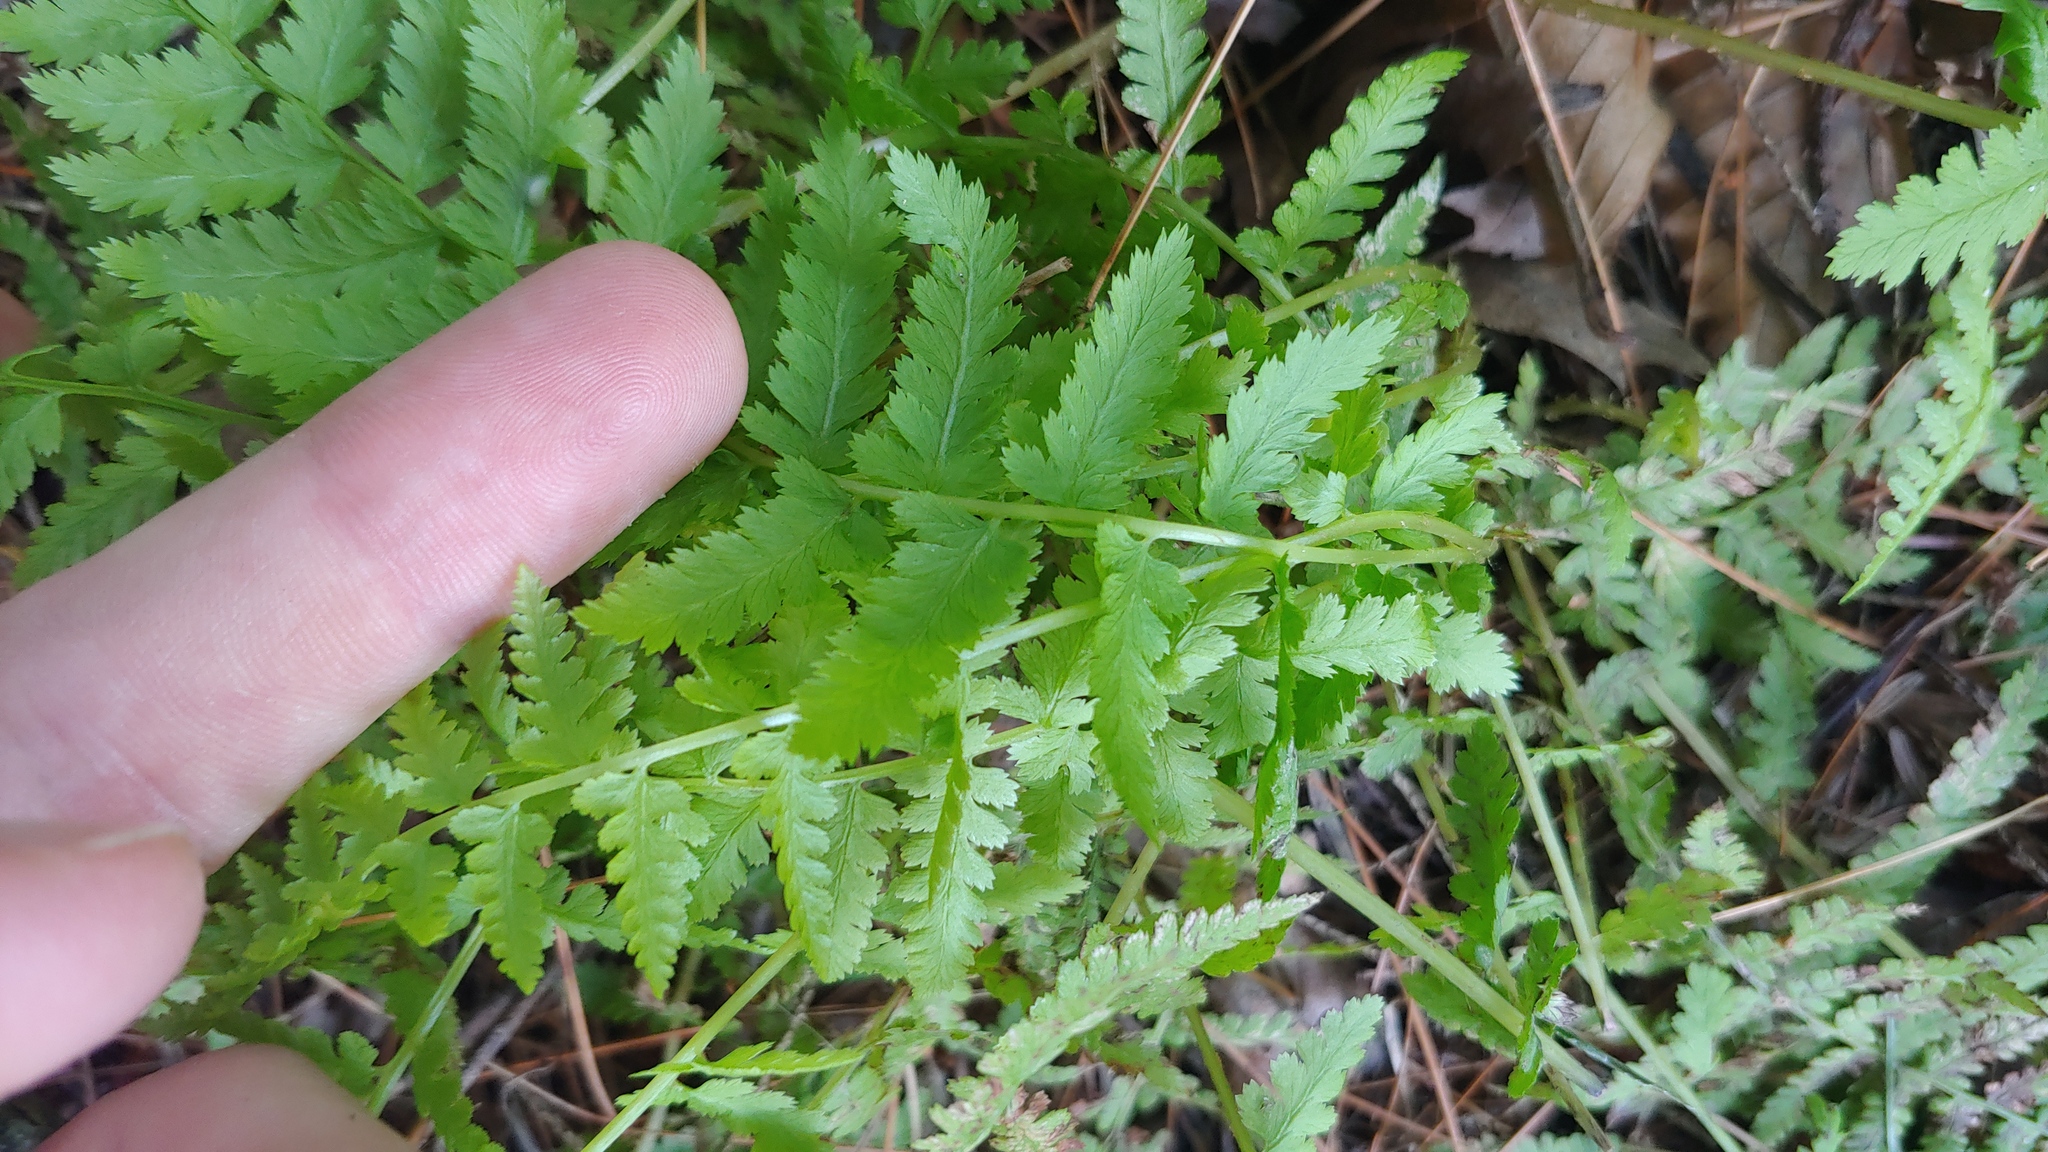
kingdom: Plantae
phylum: Tracheophyta
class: Polypodiopsida
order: Polypodiales
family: Athyriaceae
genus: Athyrium
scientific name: Athyrium angustum
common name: Northern lady fern
